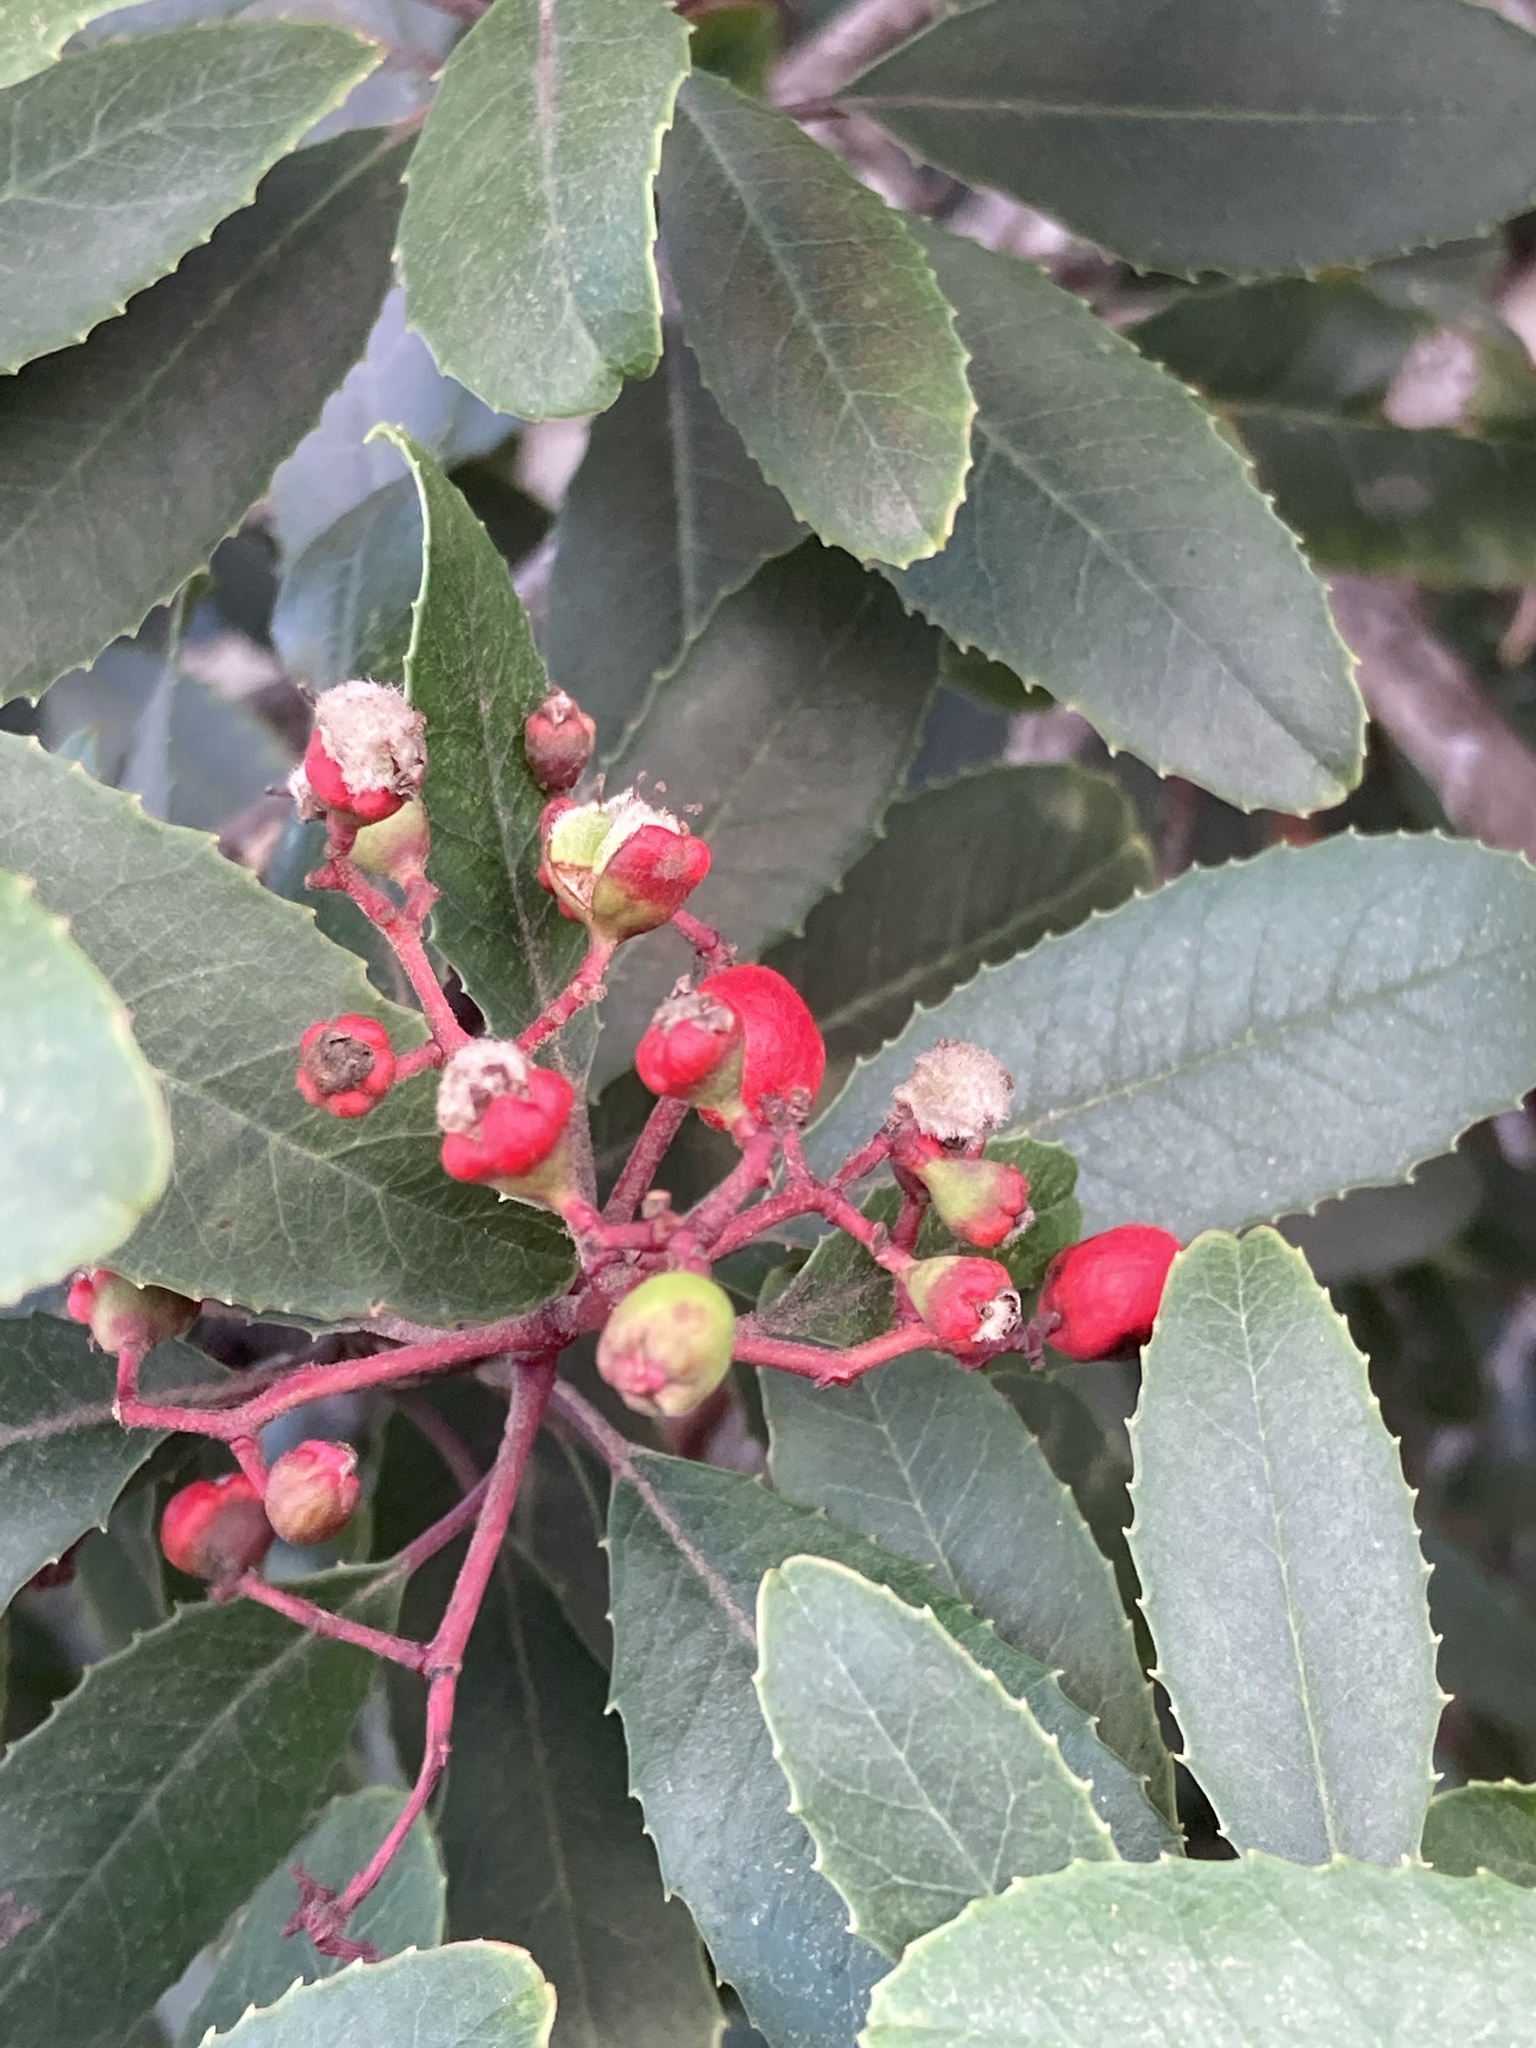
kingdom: Animalia
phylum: Arthropoda
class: Insecta
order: Diptera
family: Cecidomyiidae
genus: Asphondylia
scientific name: Asphondylia photiniae
